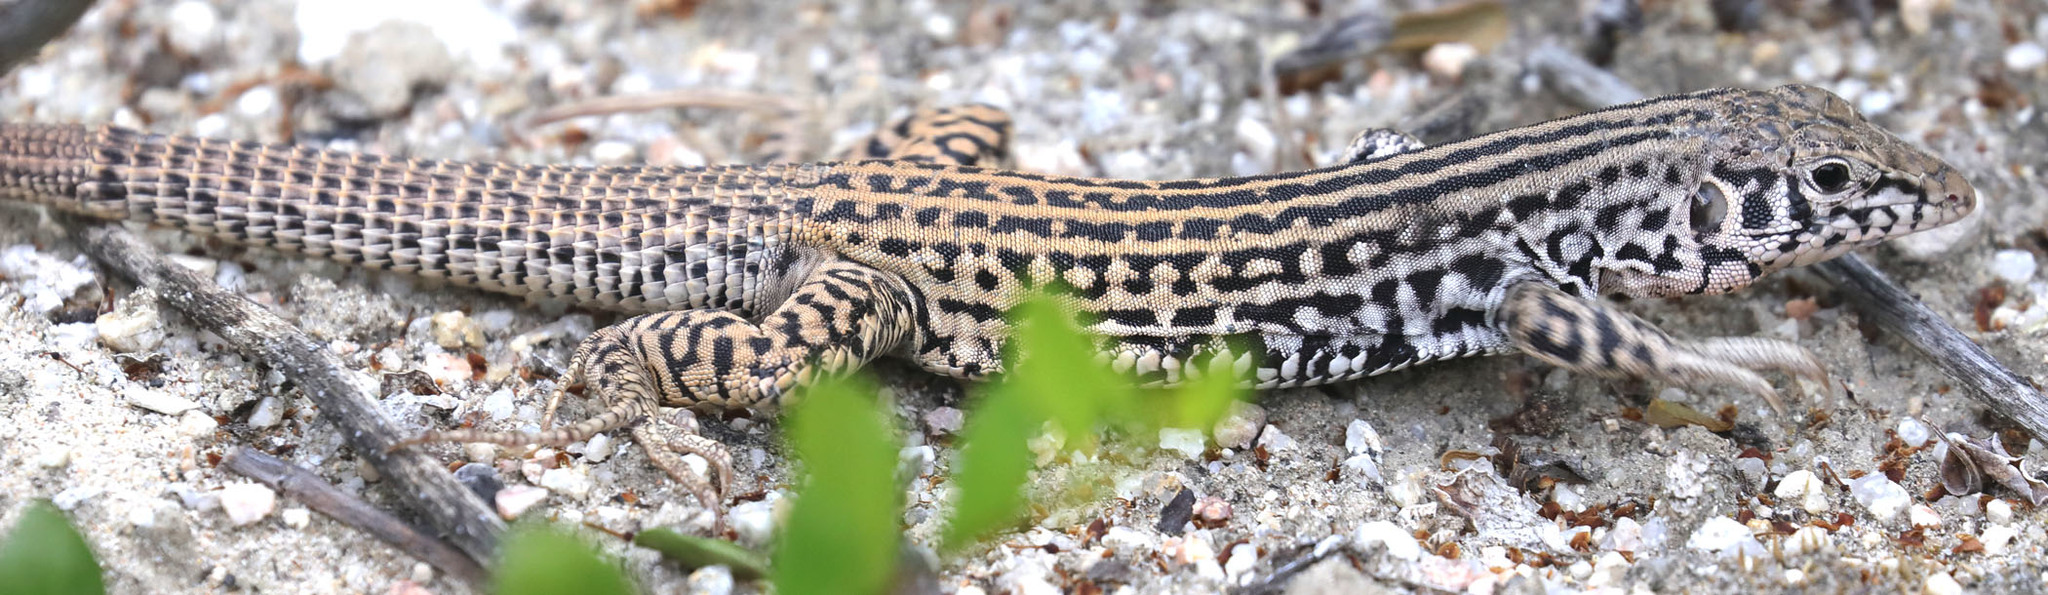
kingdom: Animalia
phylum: Chordata
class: Squamata
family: Teiidae
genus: Aspidoscelis
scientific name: Aspidoscelis tigris
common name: Tiger whiptail
